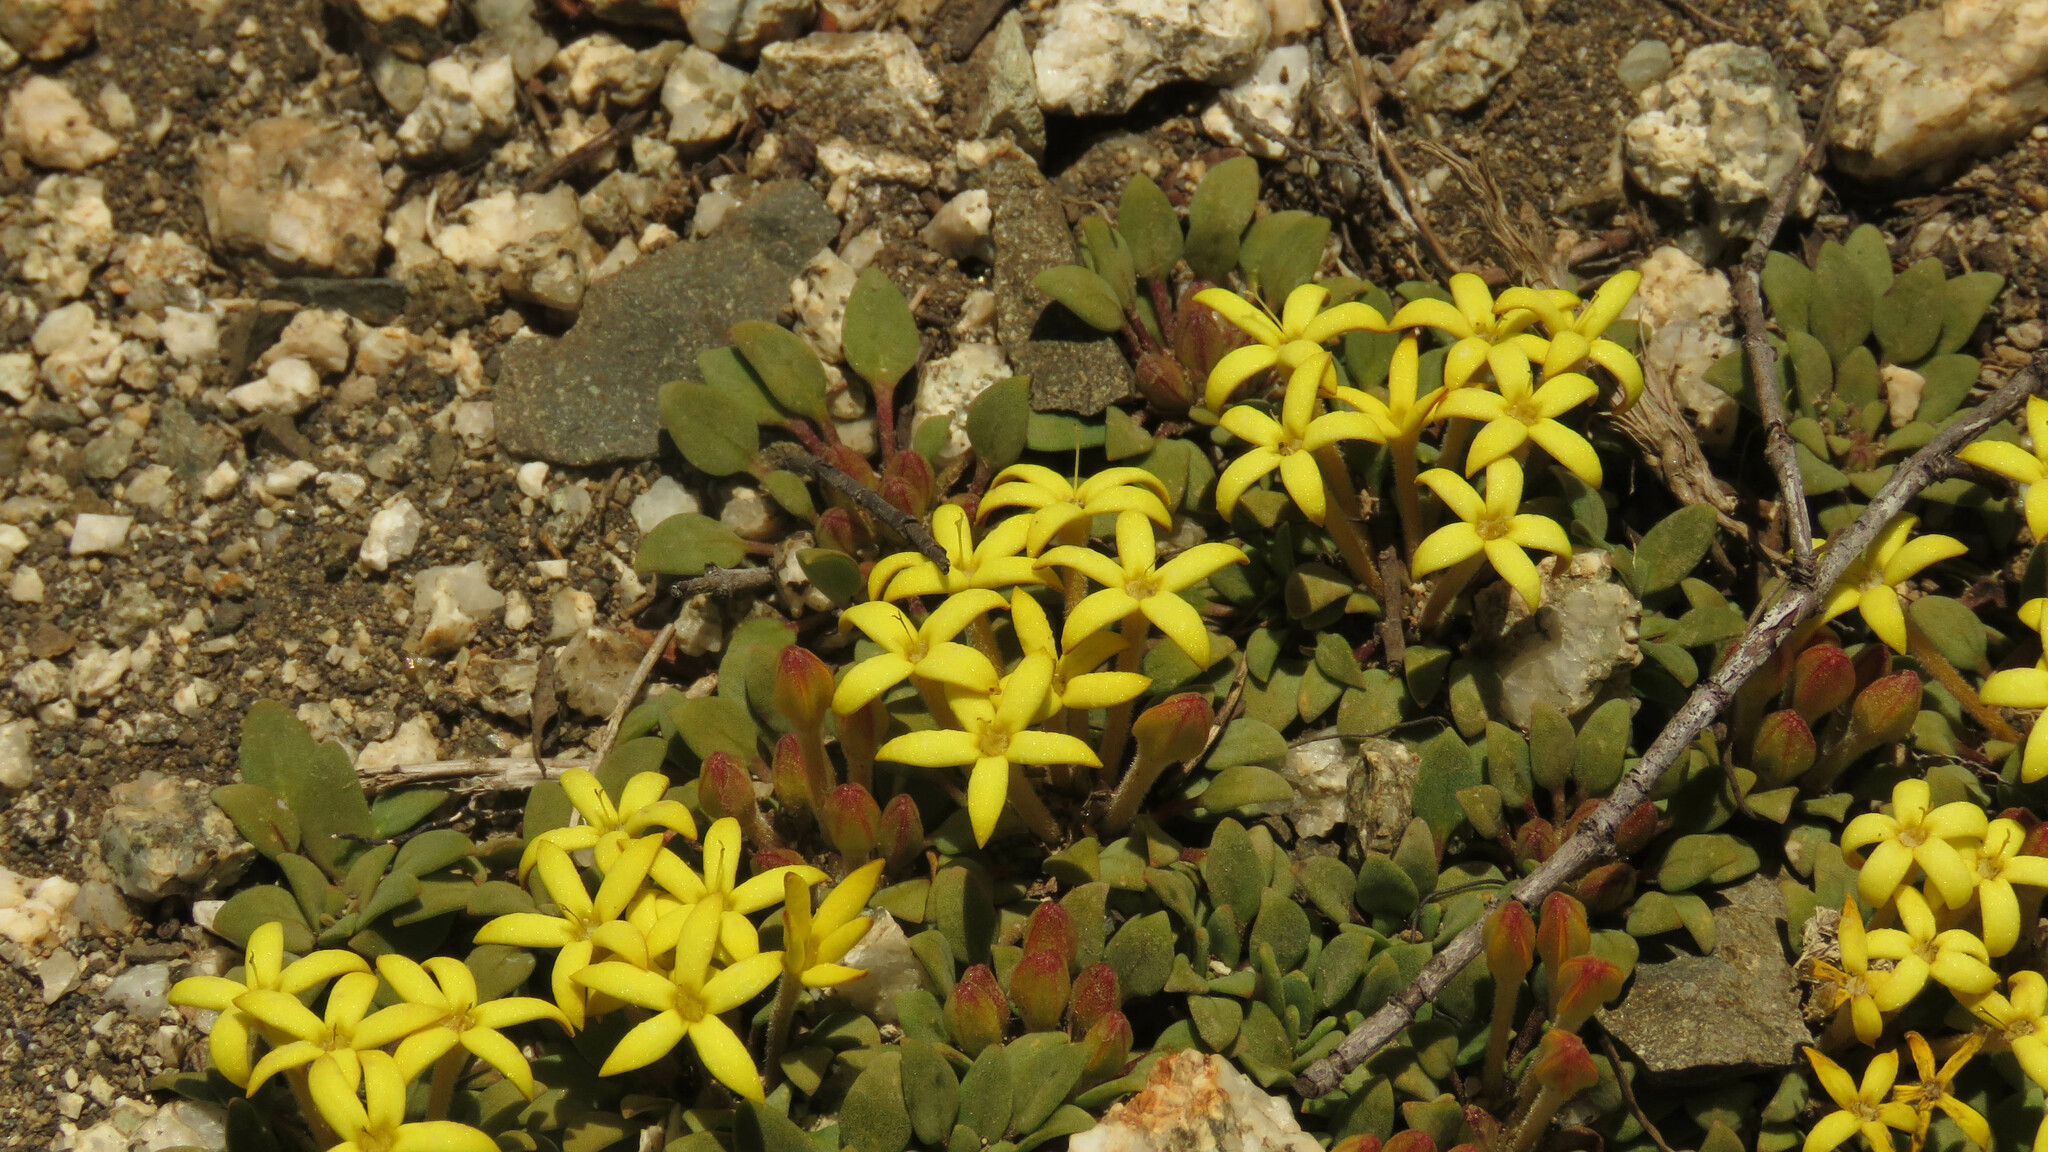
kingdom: Plantae
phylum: Tracheophyta
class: Magnoliopsida
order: Gentianales
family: Rubiaceae
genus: Oreopolus
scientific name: Oreopolus glacialis
